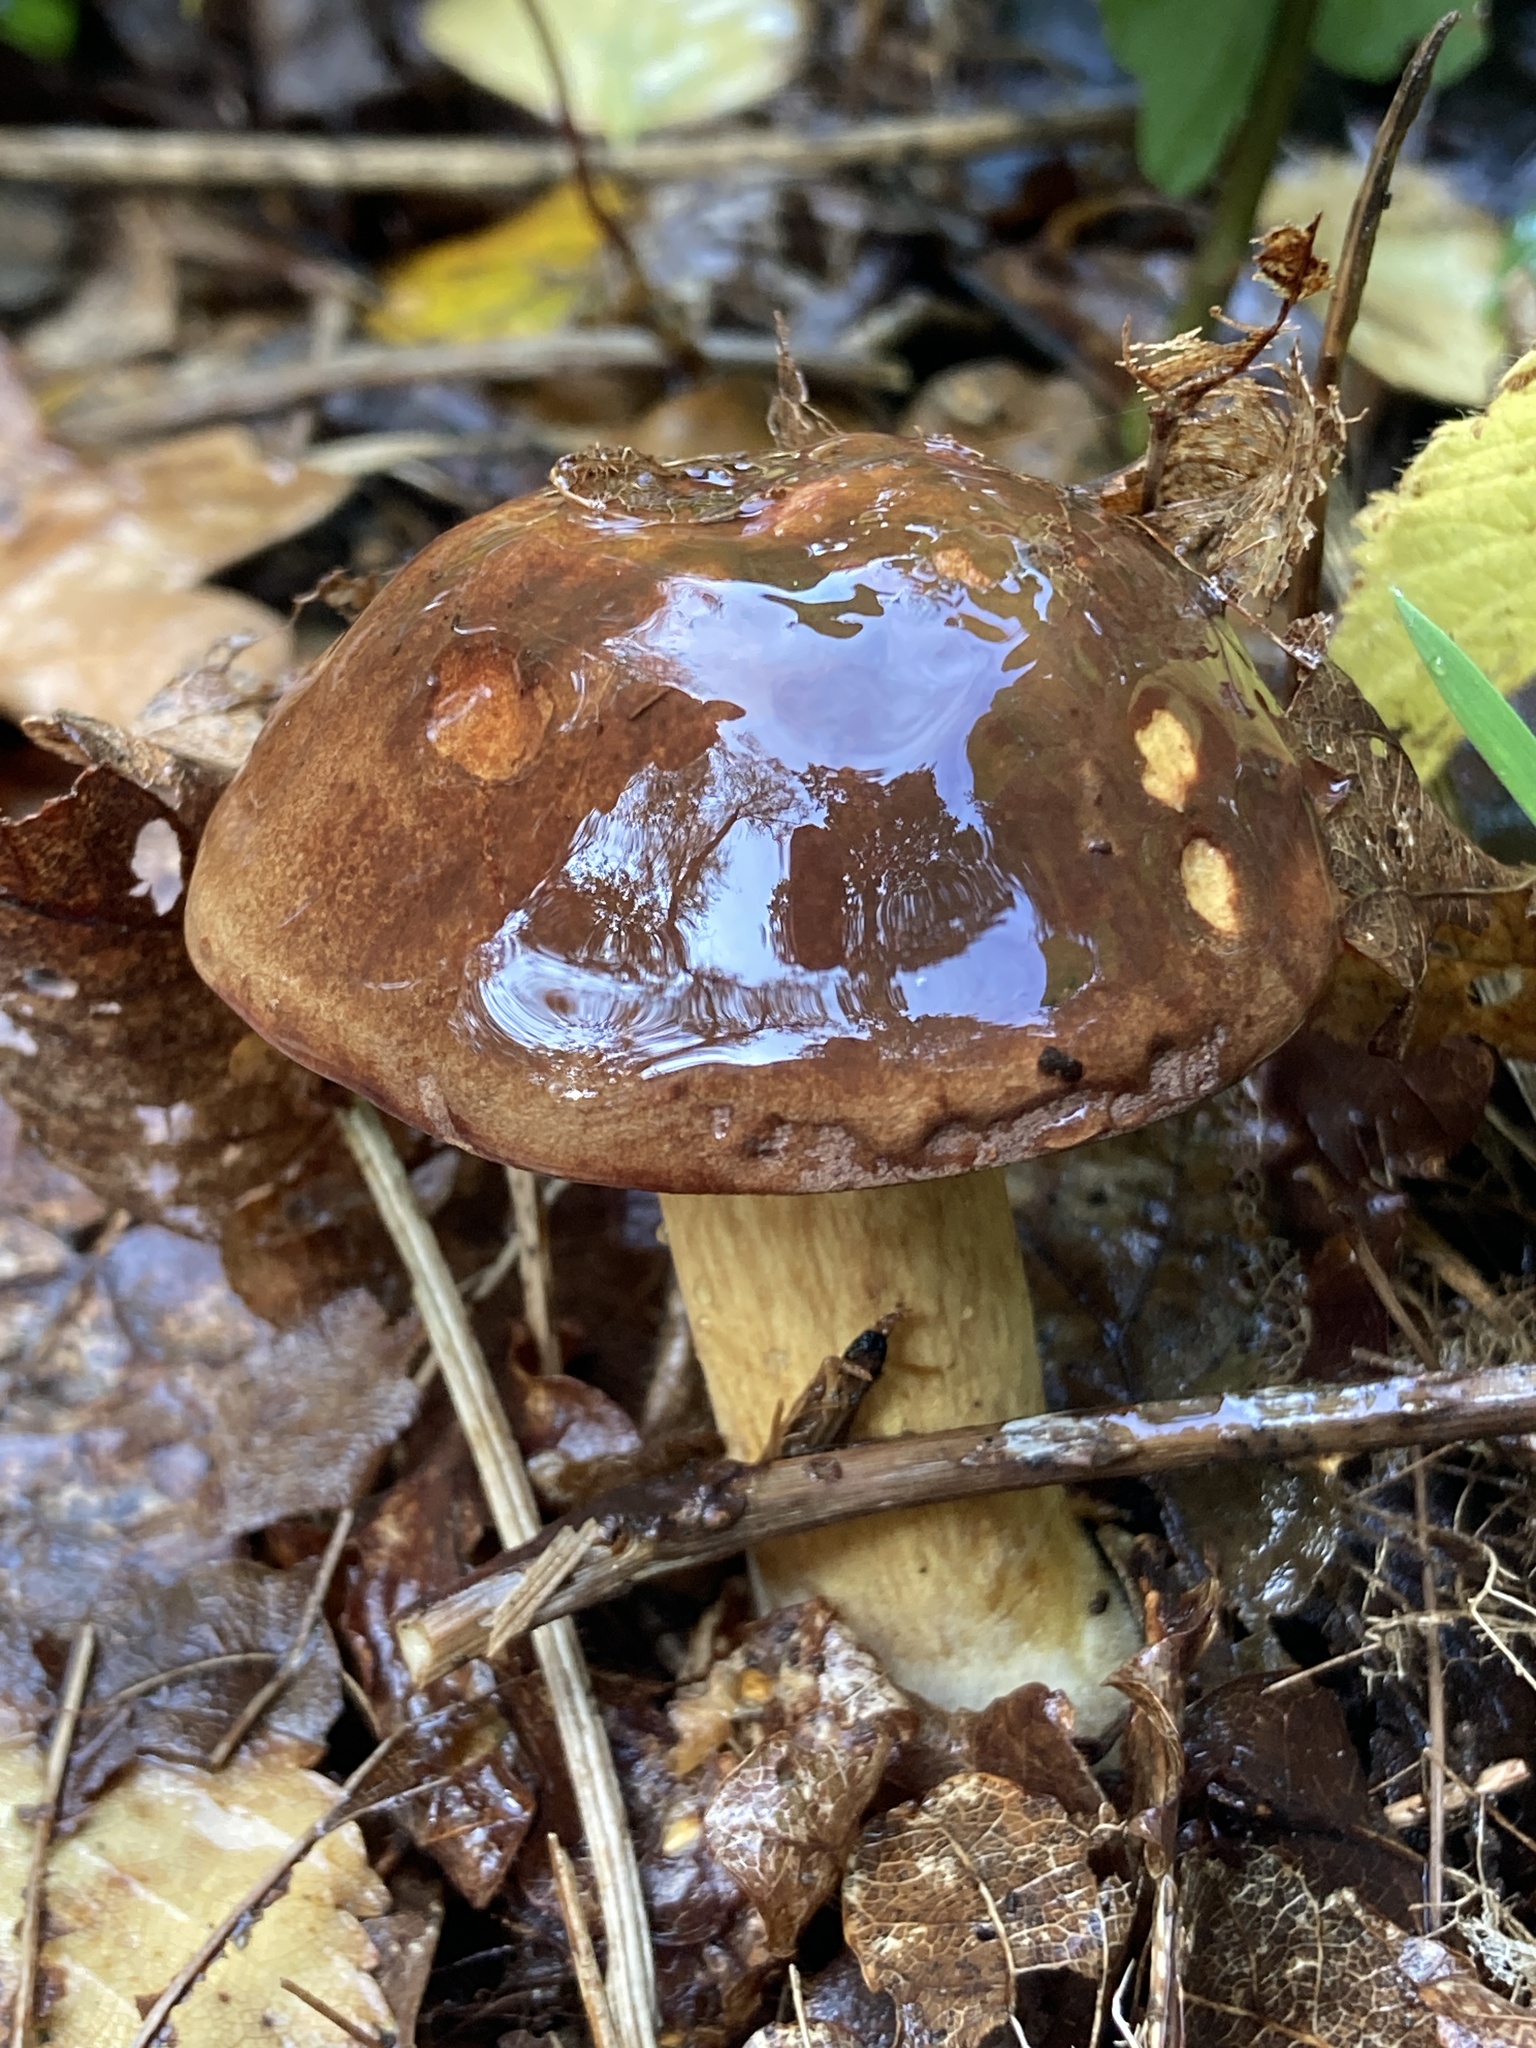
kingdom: Fungi
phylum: Basidiomycota
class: Agaricomycetes
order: Boletales
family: Boletaceae
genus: Imleria
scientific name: Imleria badia
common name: Bay bolete
